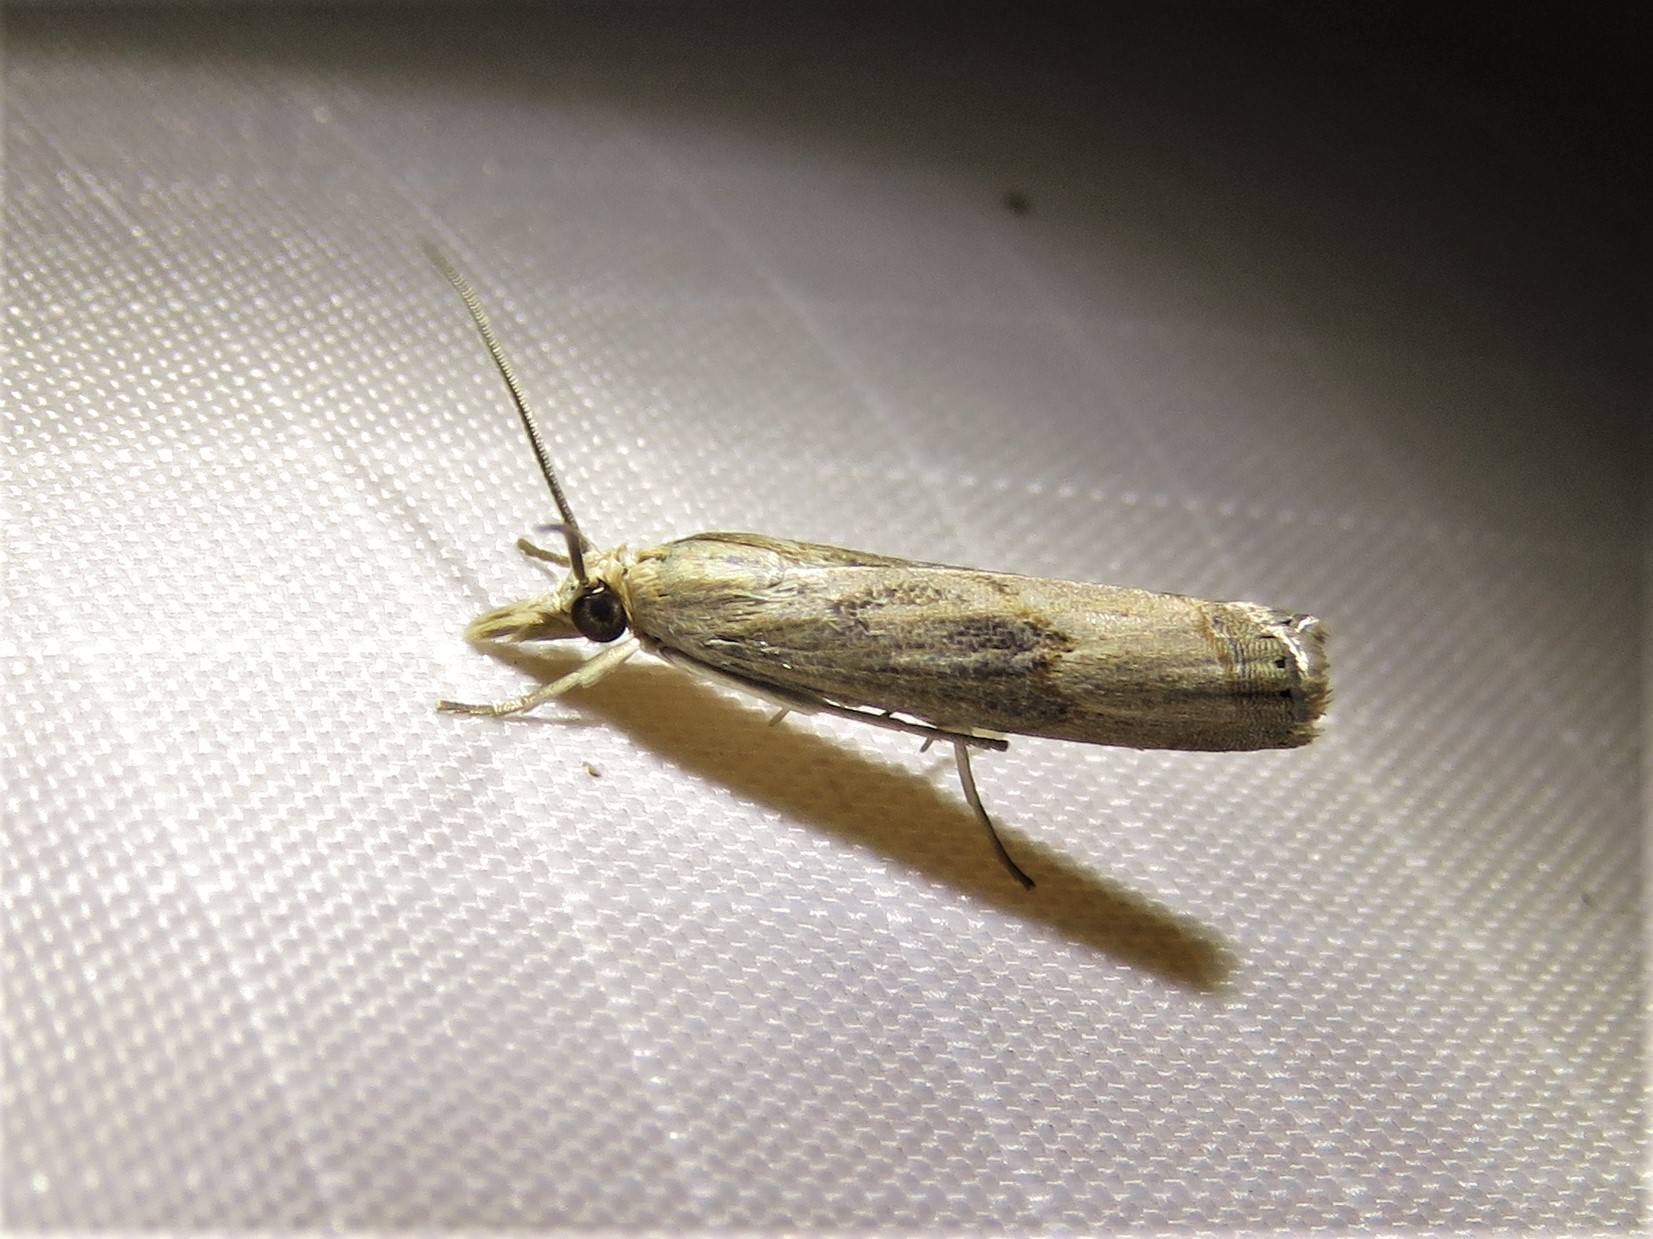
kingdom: Animalia
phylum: Arthropoda
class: Insecta
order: Lepidoptera
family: Crambidae
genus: Parapediasia
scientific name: Parapediasia teterellus
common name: Bluegrass webworm moth
